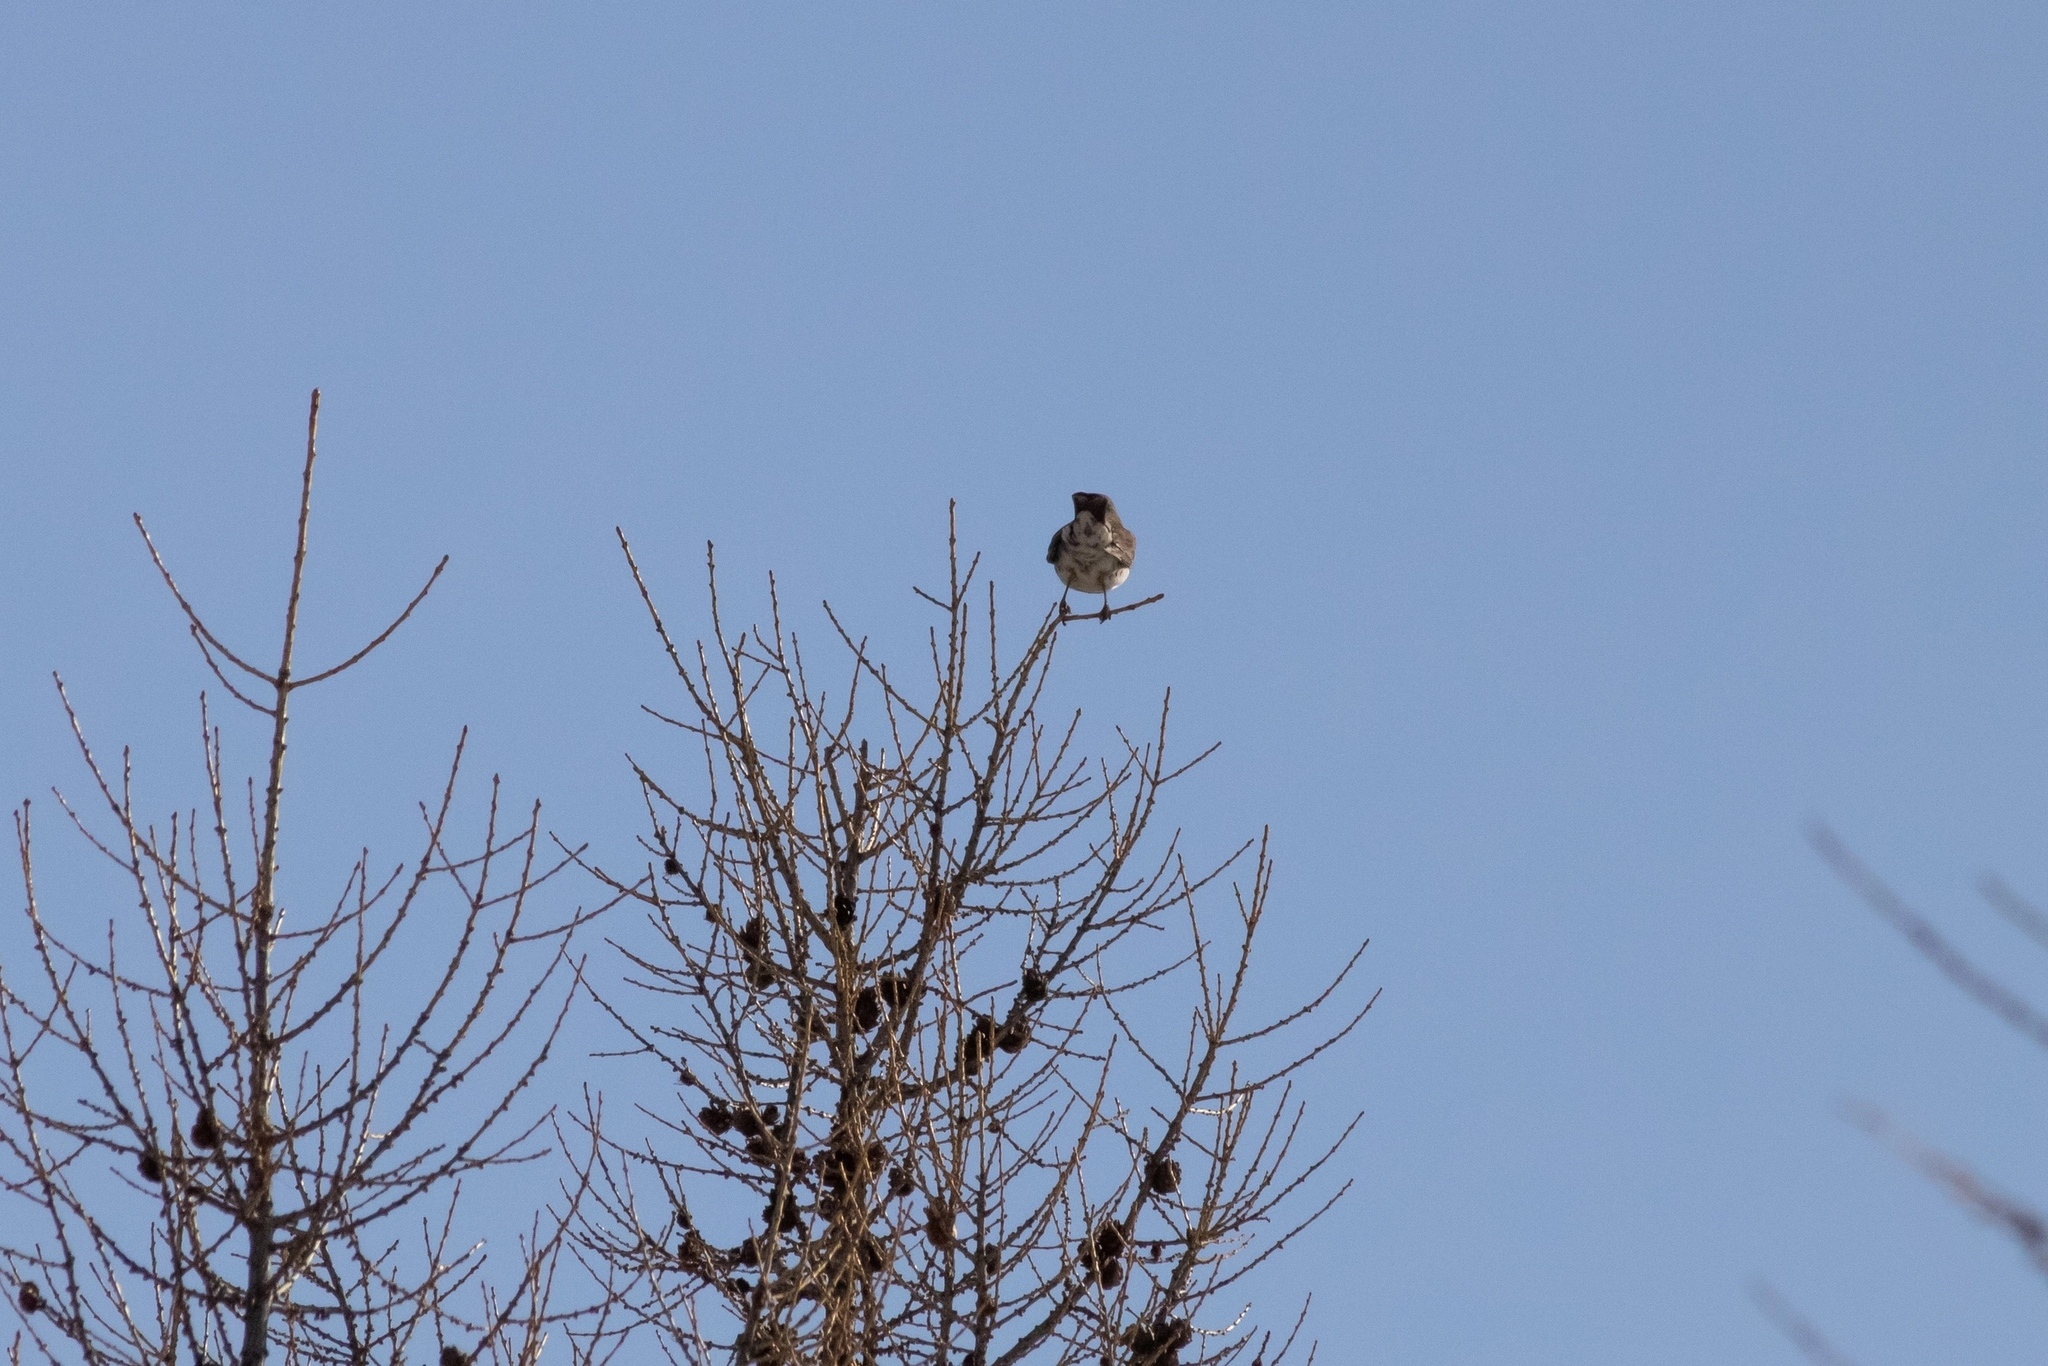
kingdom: Animalia
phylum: Chordata
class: Aves
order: Passeriformes
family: Turdidae
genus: Turdus
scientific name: Turdus pilaris
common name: Fieldfare
